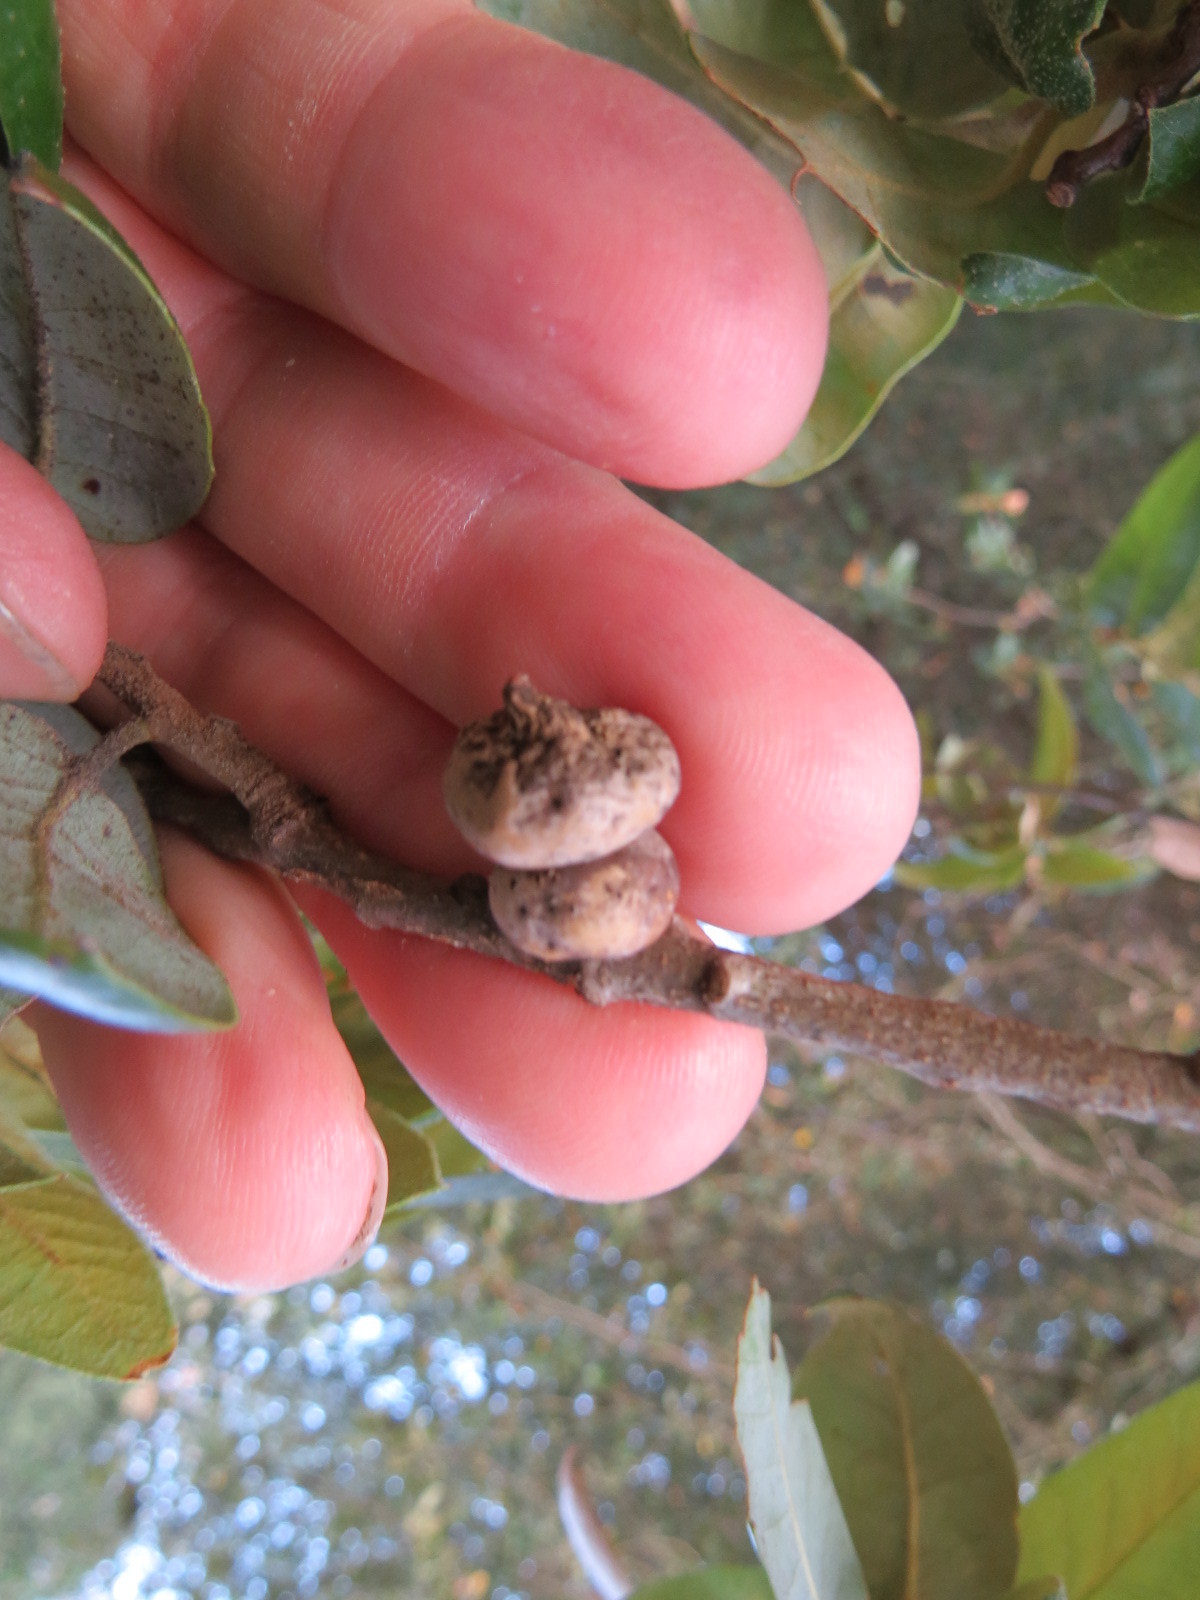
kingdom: Animalia
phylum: Arthropoda
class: Insecta
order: Hymenoptera
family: Cynipidae
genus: Heteroecus
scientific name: Heteroecus
